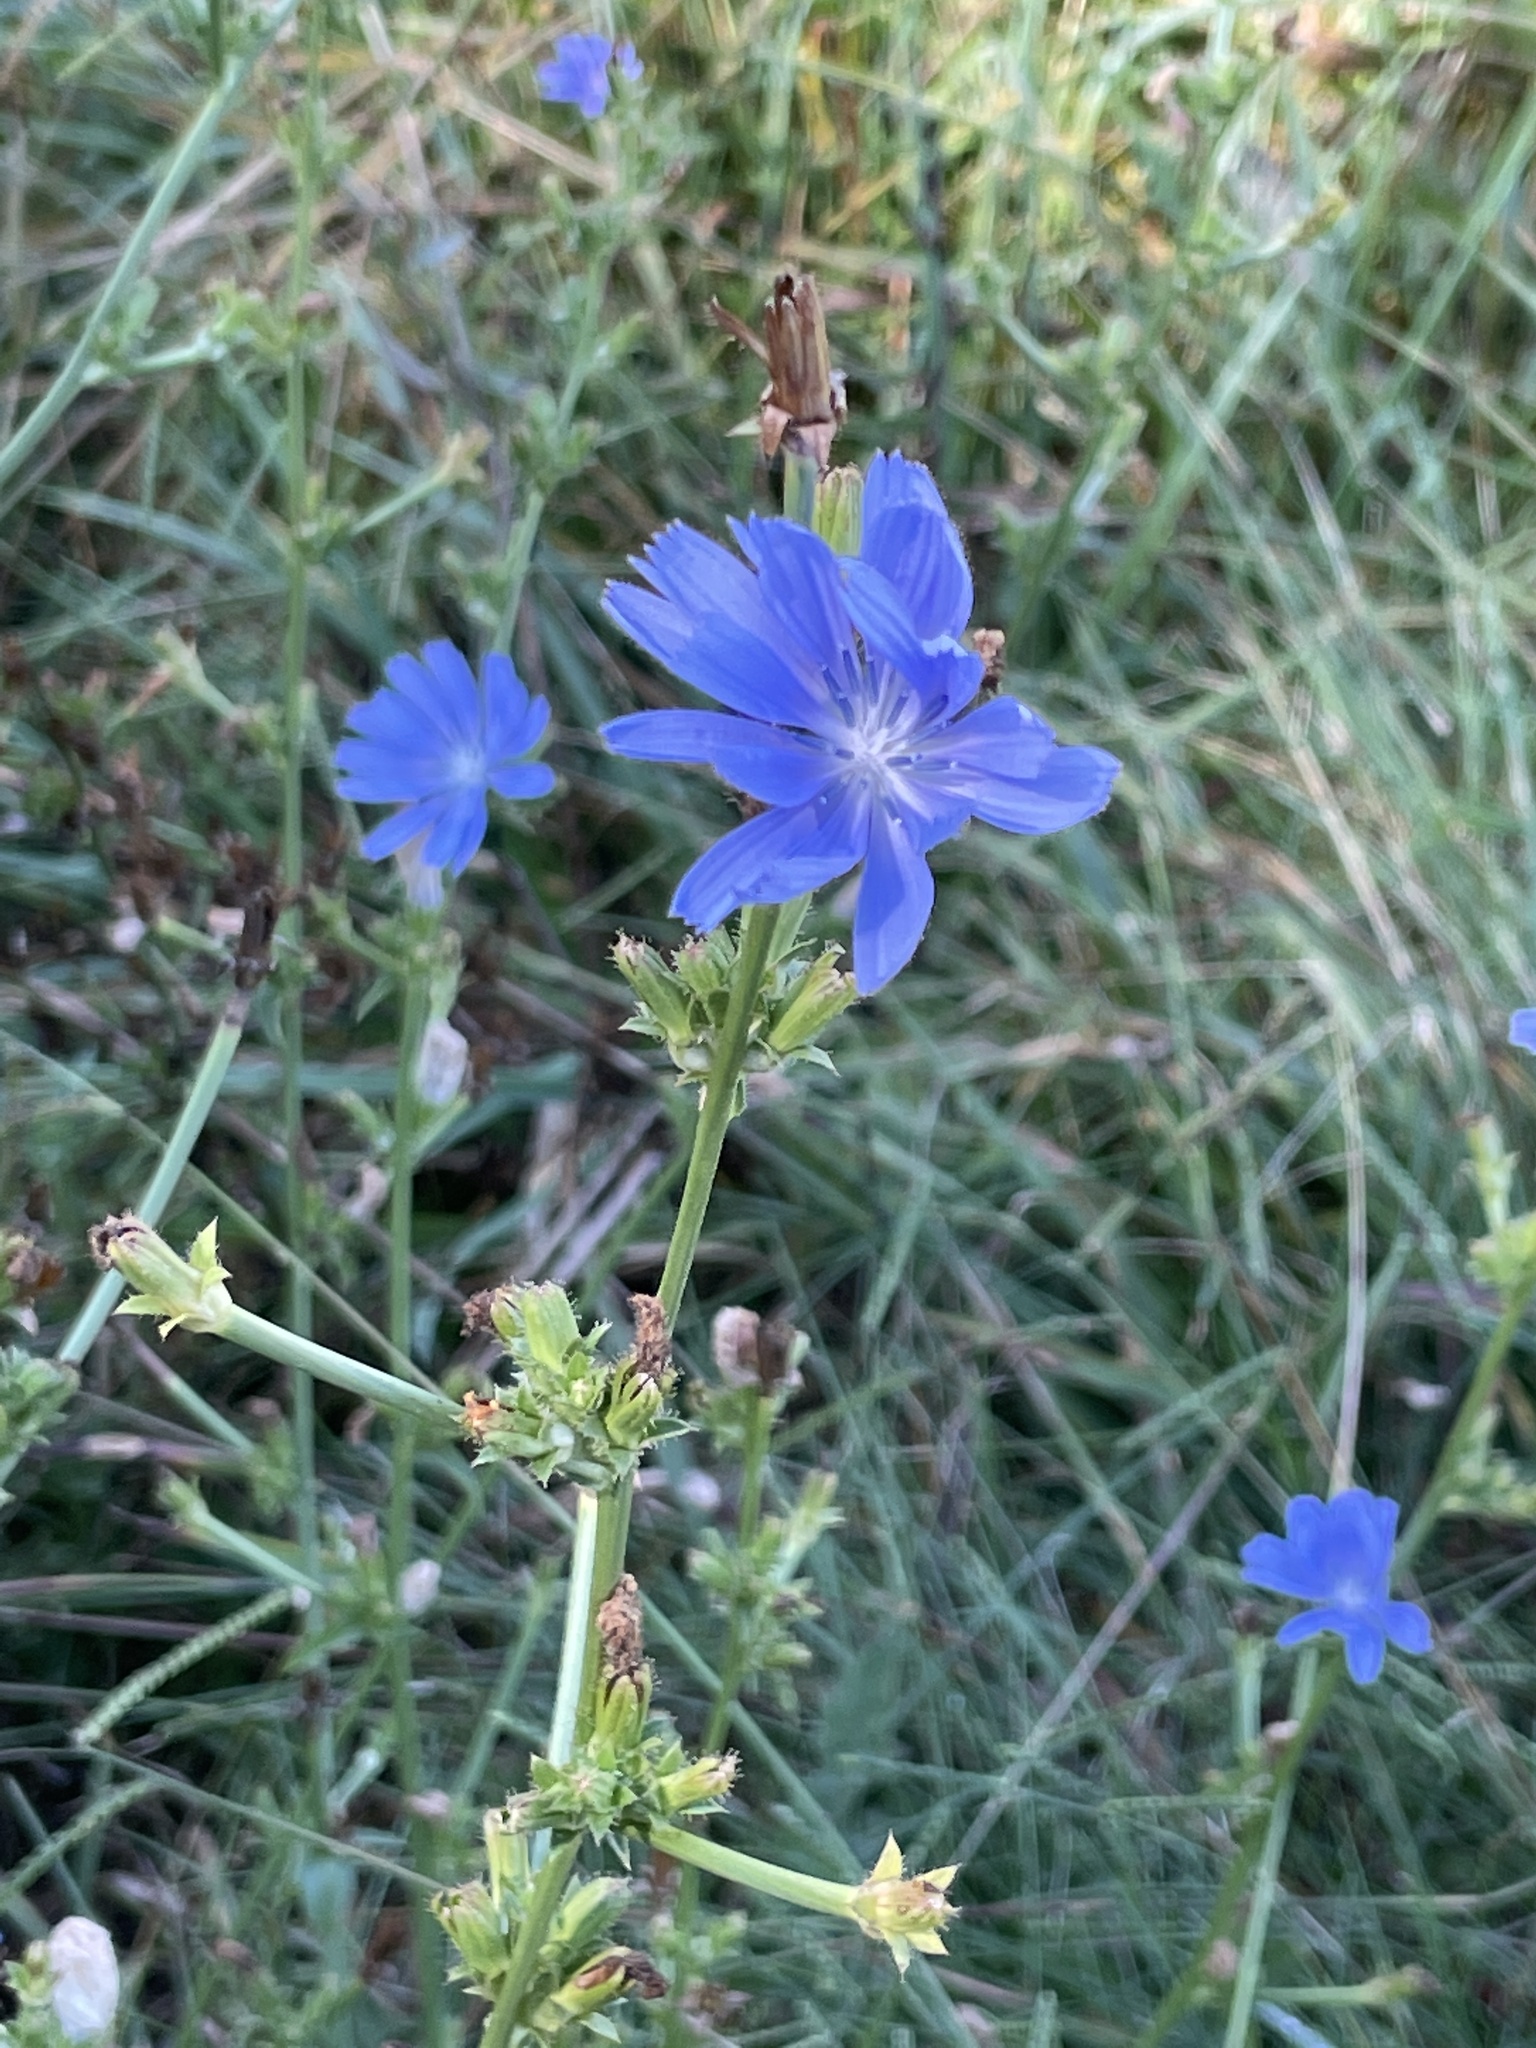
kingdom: Plantae
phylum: Tracheophyta
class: Magnoliopsida
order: Asterales
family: Asteraceae
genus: Cichorium
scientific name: Cichorium intybus
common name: Chicory
